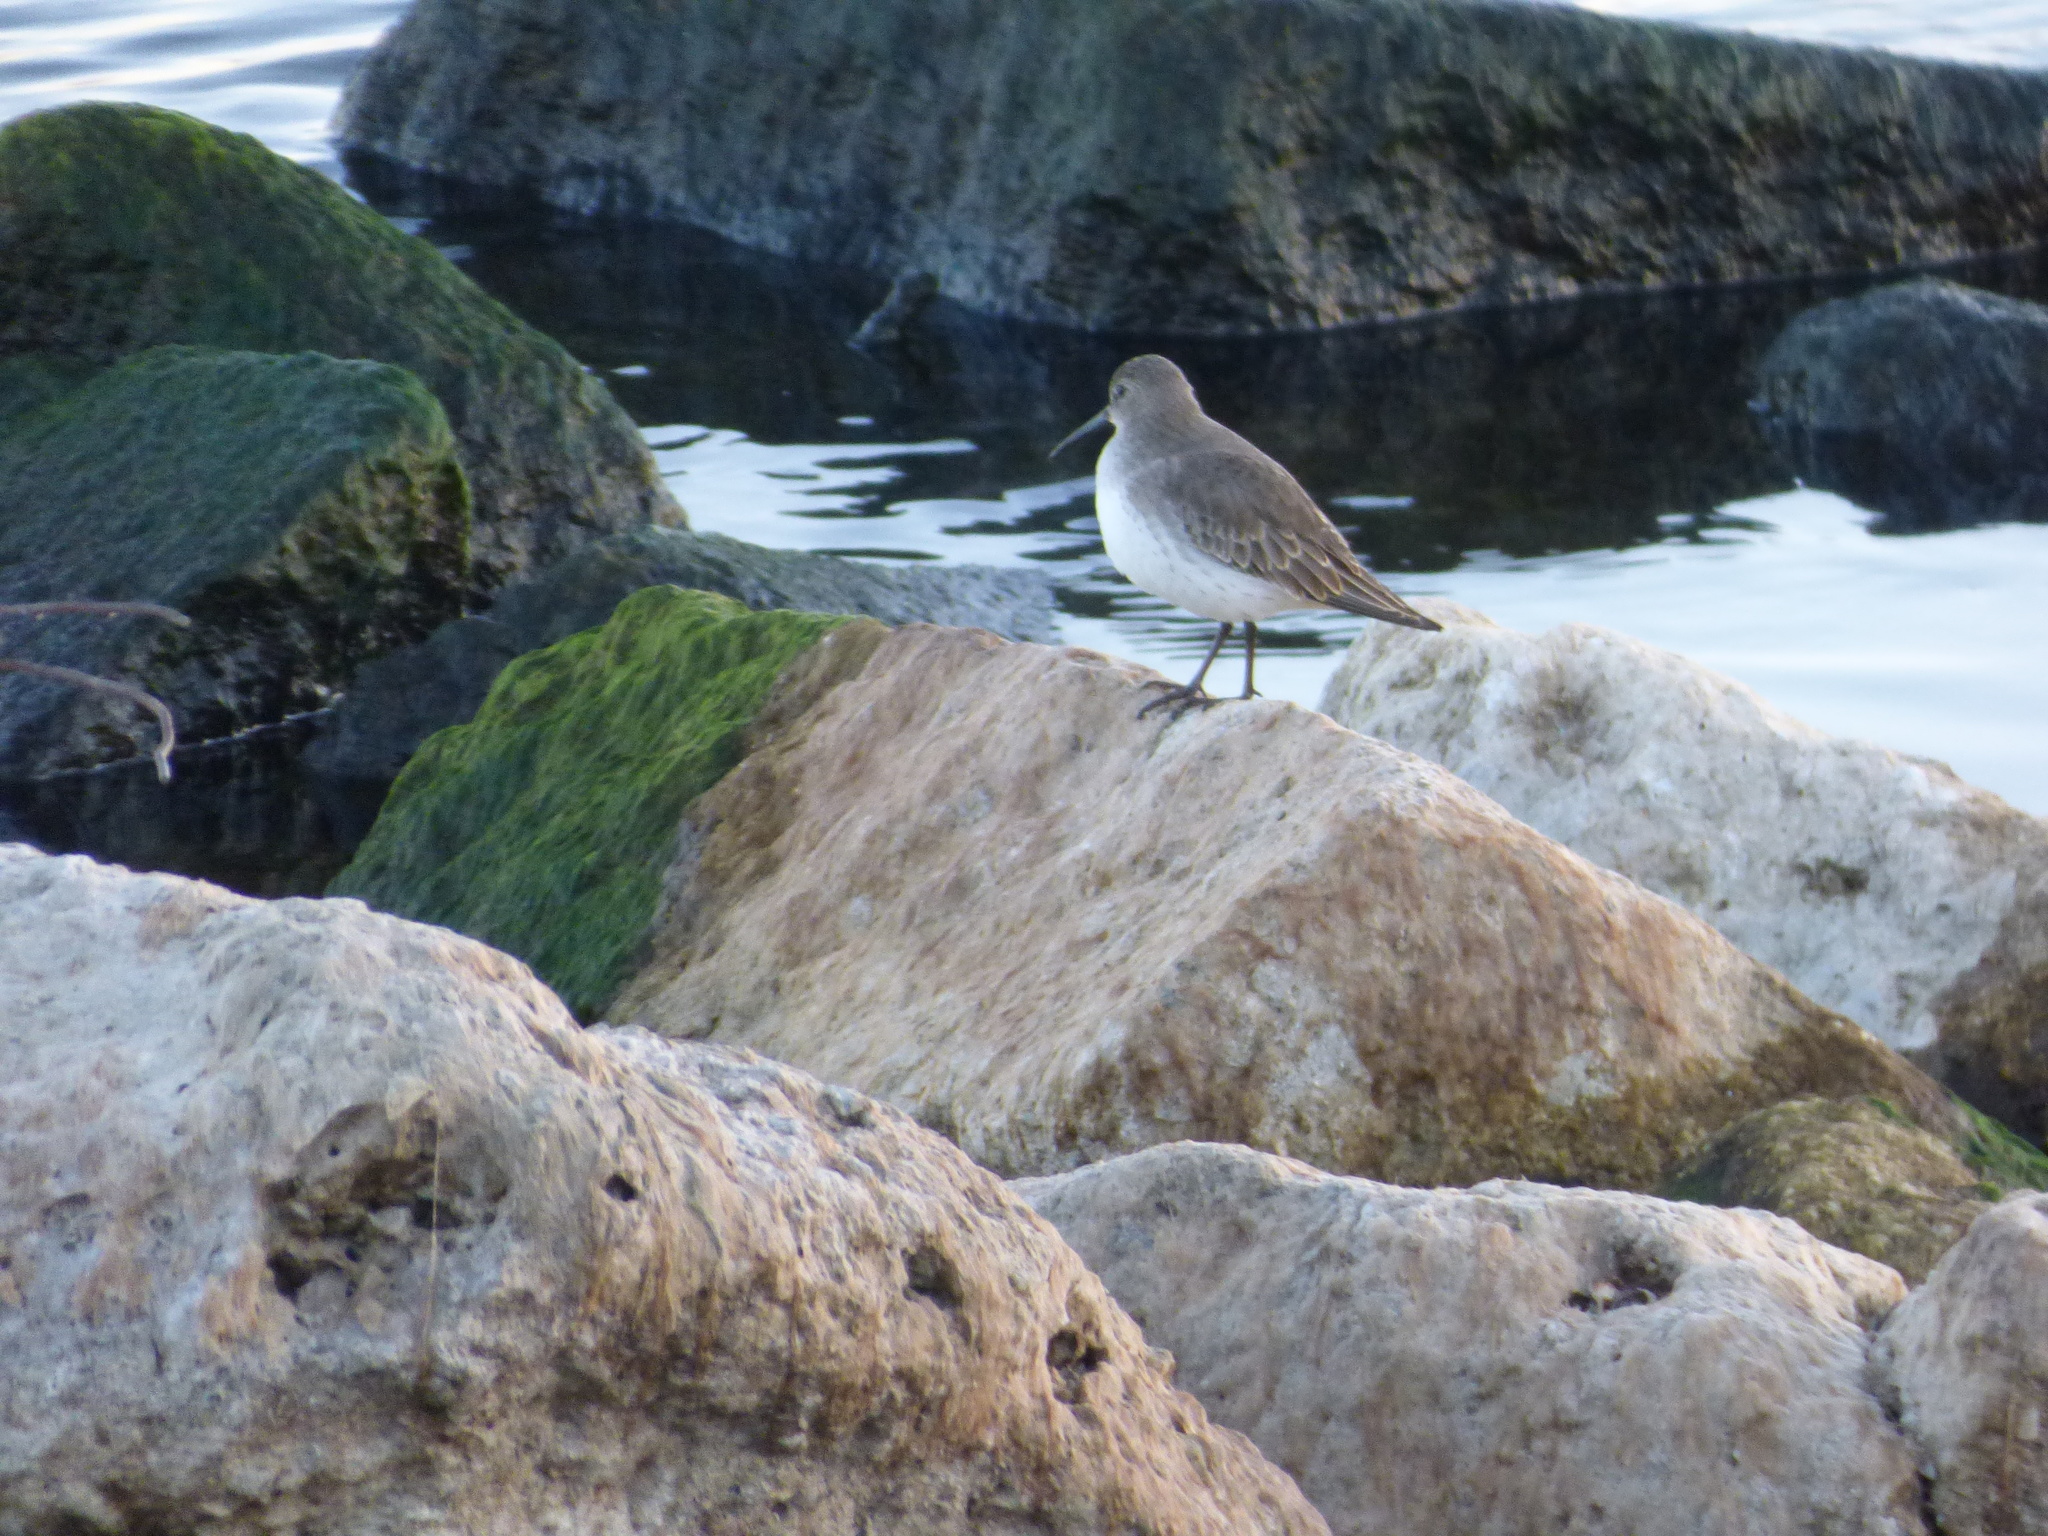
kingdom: Animalia
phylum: Chordata
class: Aves
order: Charadriiformes
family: Scolopacidae
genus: Calidris
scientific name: Calidris alpina
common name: Dunlin
